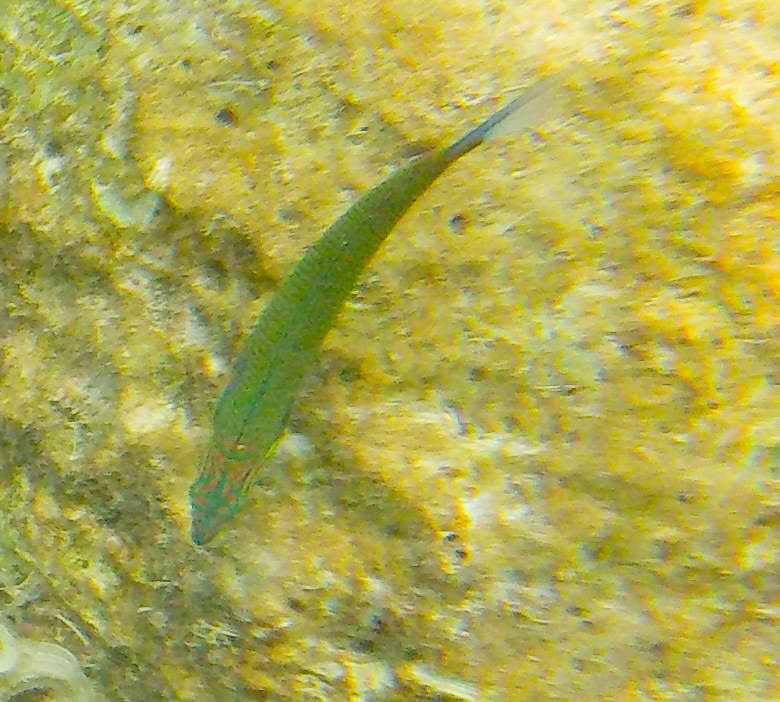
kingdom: Animalia
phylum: Chordata
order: Perciformes
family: Labridae
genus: Thalassoma
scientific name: Thalassoma lunare
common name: Blue wrasse
